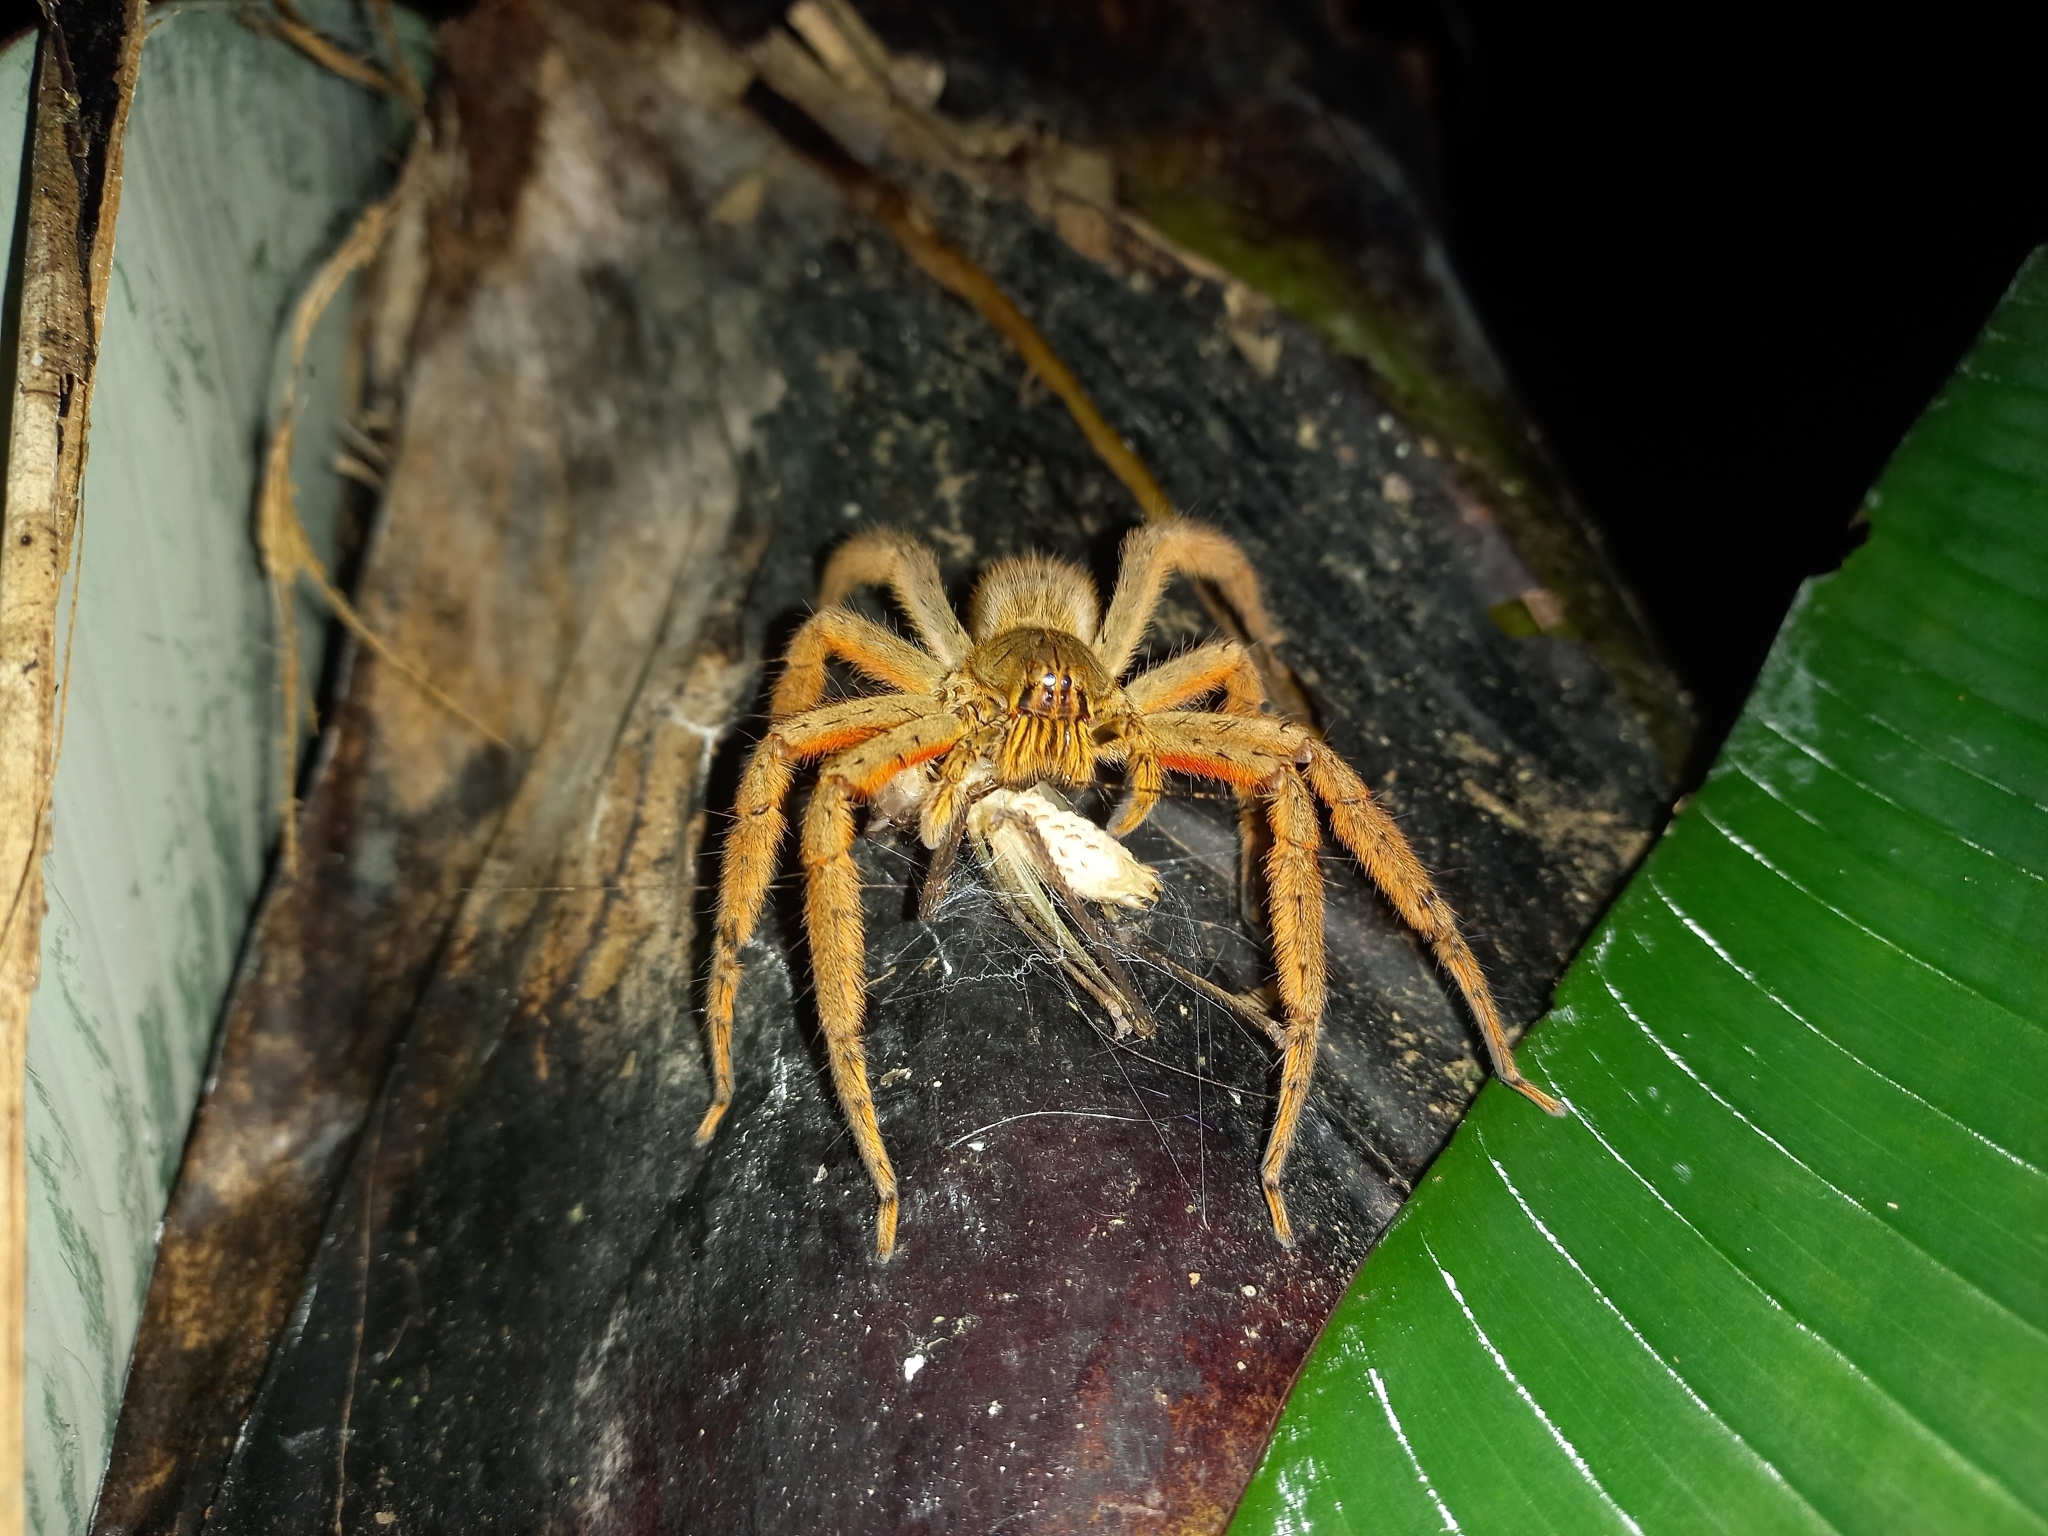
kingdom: Animalia
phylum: Arthropoda
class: Arachnida
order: Araneae
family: Trechaleidae
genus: Cupiennius
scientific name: Cupiennius coccineus
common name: Wandering spiders
